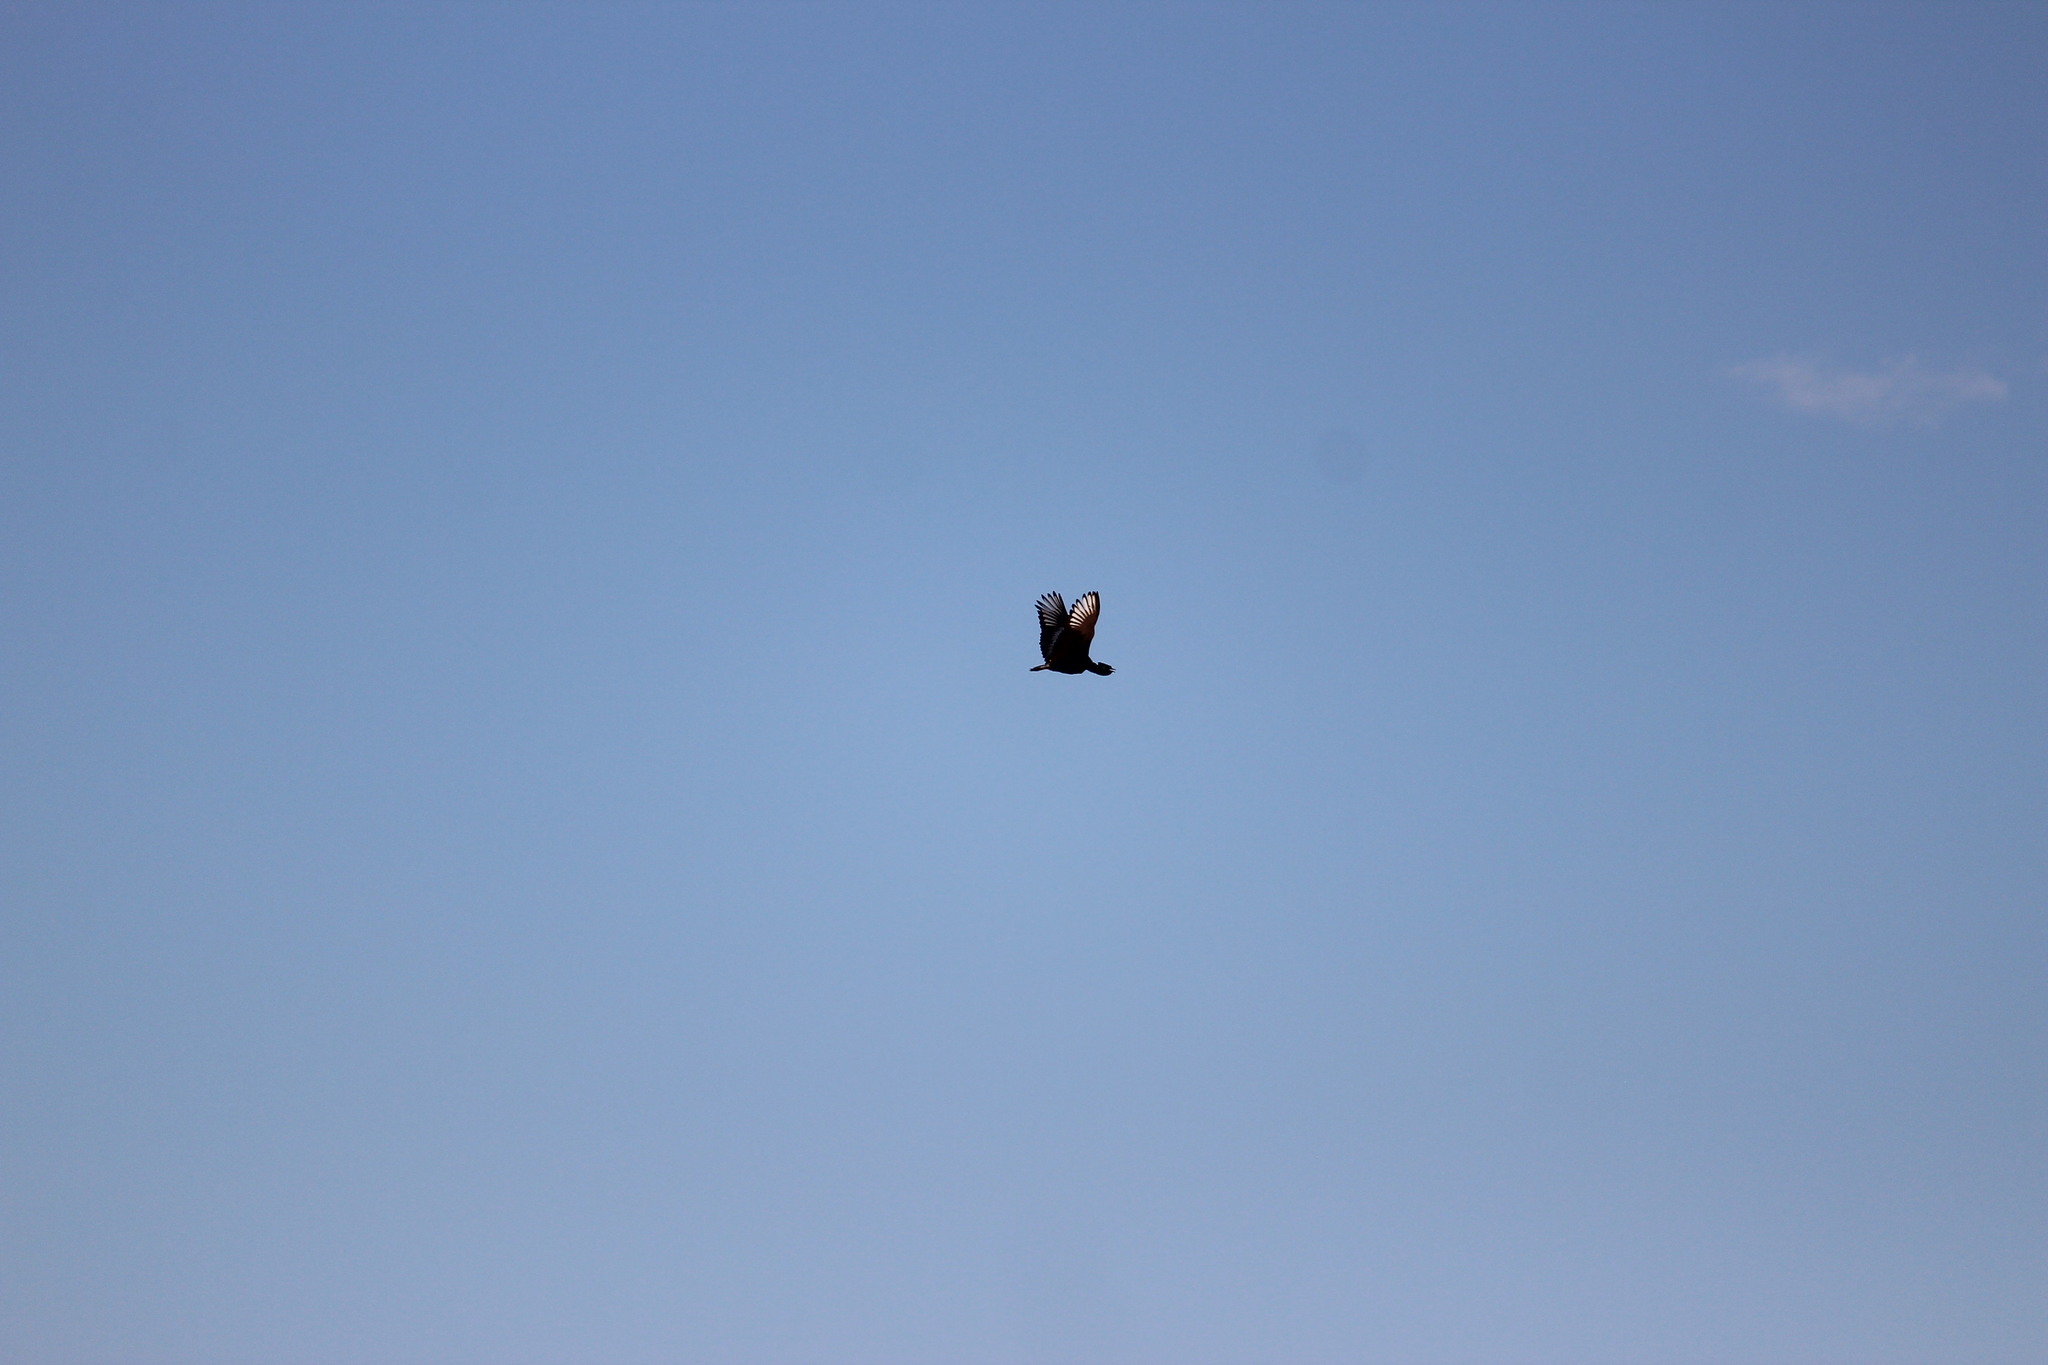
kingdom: Animalia
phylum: Chordata
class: Aves
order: Otidiformes
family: Otididae
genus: Afrotis
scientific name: Afrotis afraoides
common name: Northern black korhaan
